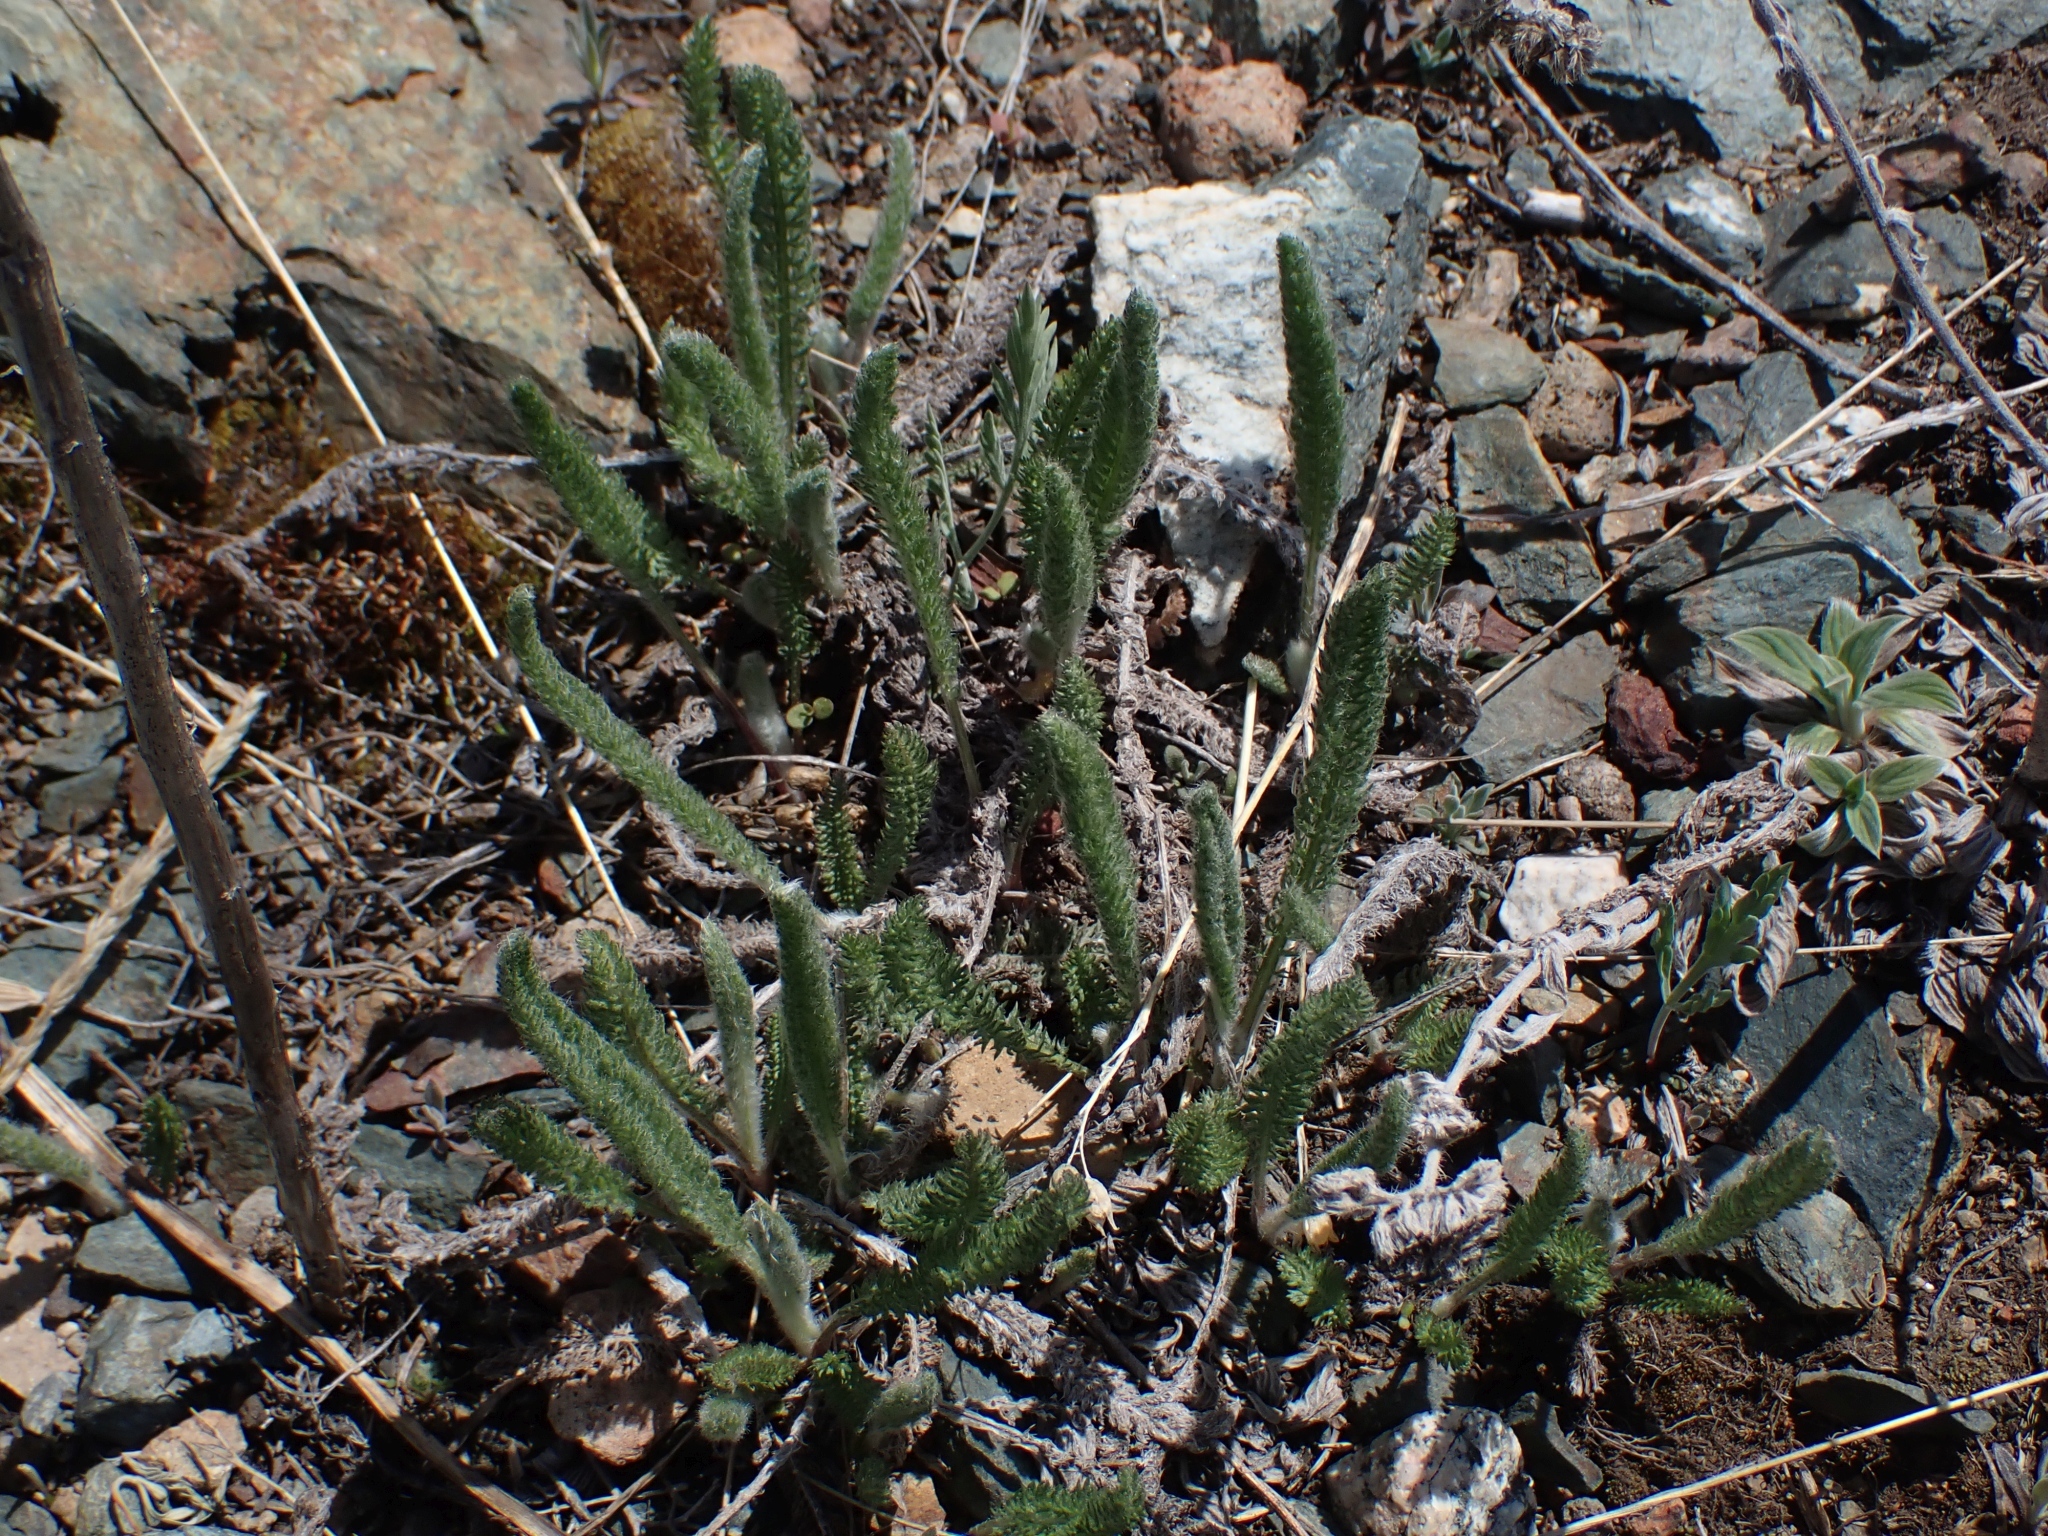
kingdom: Plantae
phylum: Tracheophyta
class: Magnoliopsida
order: Asterales
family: Asteraceae
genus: Achillea
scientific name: Achillea millefolium
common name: Yarrow
